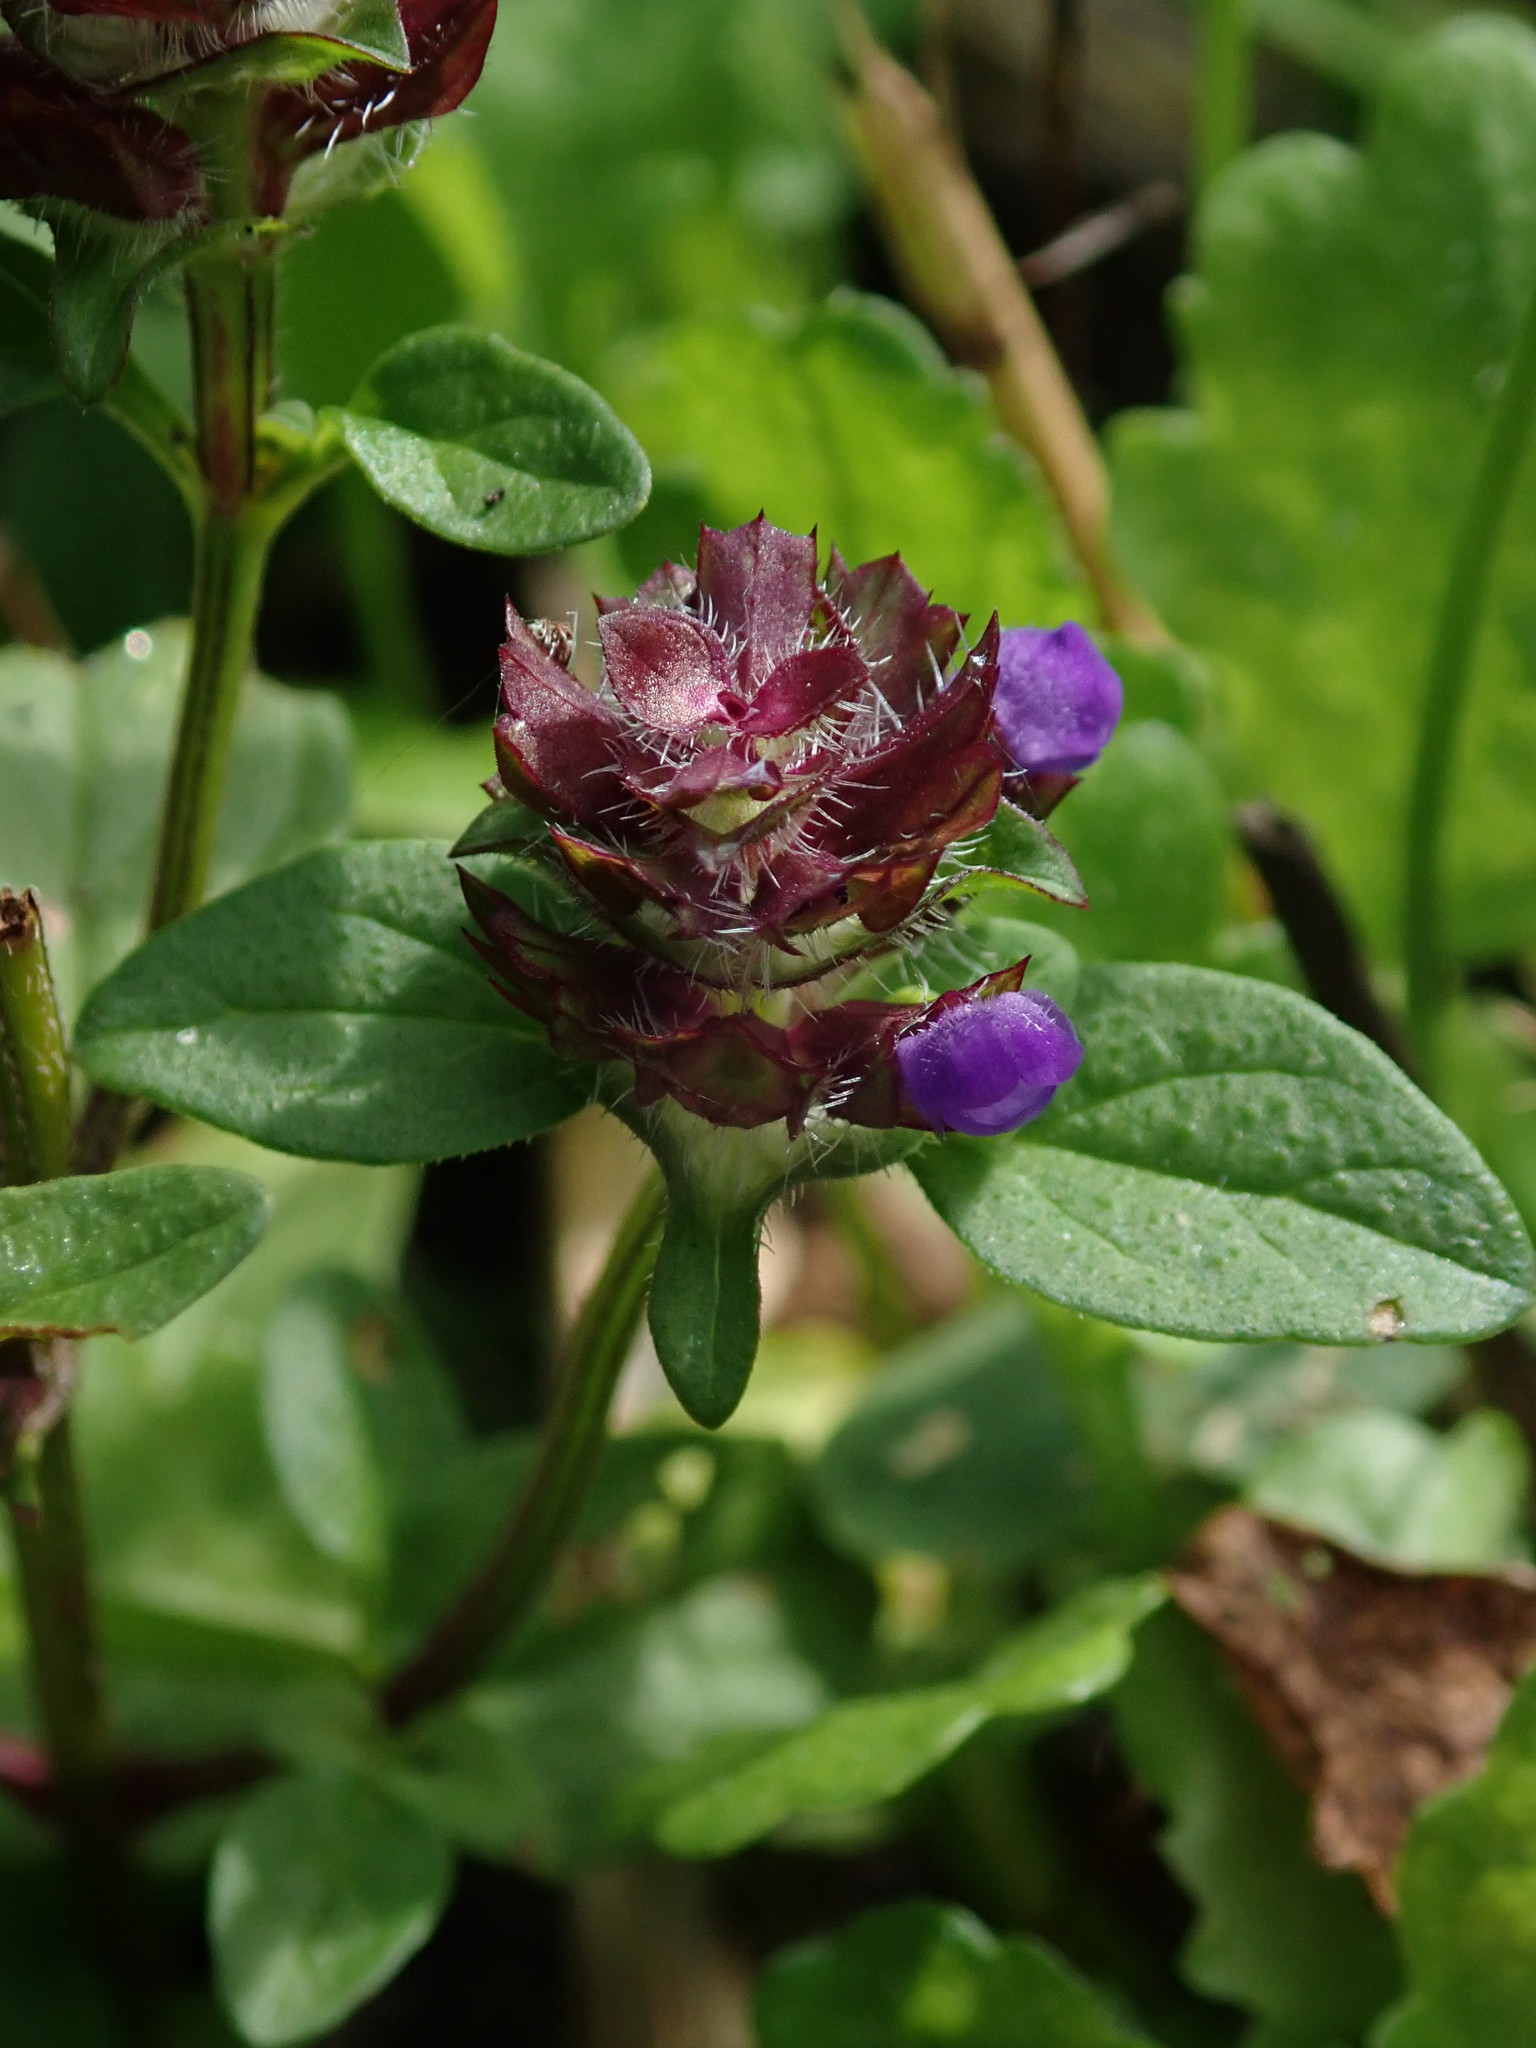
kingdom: Plantae
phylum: Tracheophyta
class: Magnoliopsida
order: Lamiales
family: Lamiaceae
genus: Prunella
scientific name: Prunella vulgaris
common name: Heal-all
